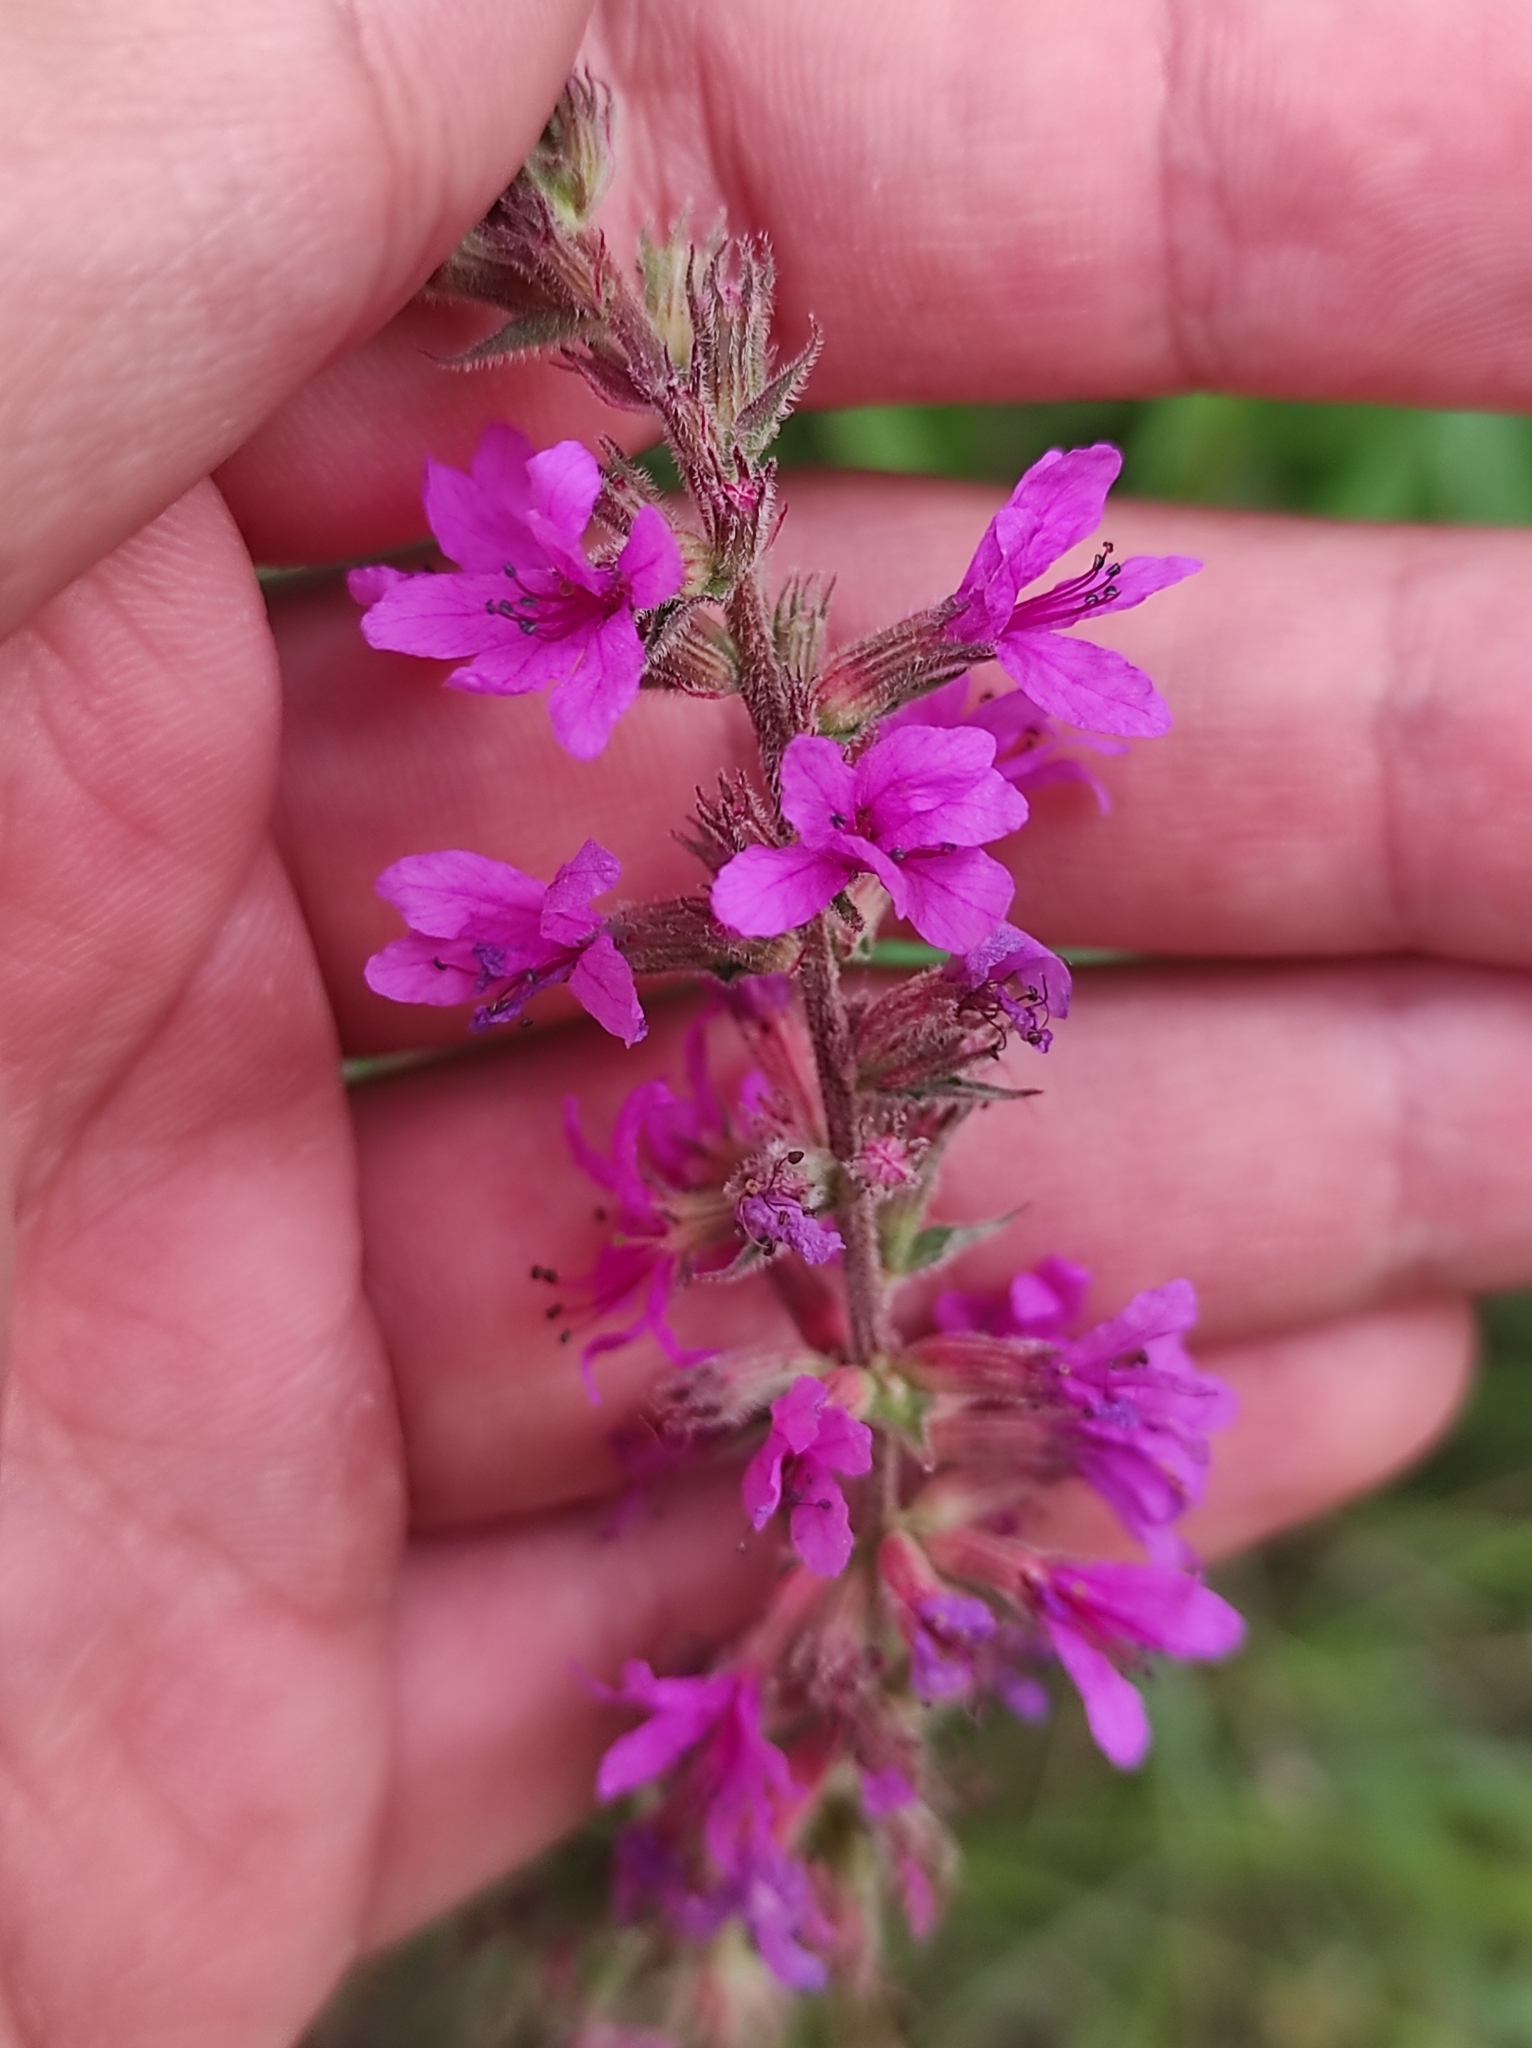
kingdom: Plantae
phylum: Tracheophyta
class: Magnoliopsida
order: Myrtales
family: Lythraceae
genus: Lythrum
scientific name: Lythrum salicaria
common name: Purple loosestrife
